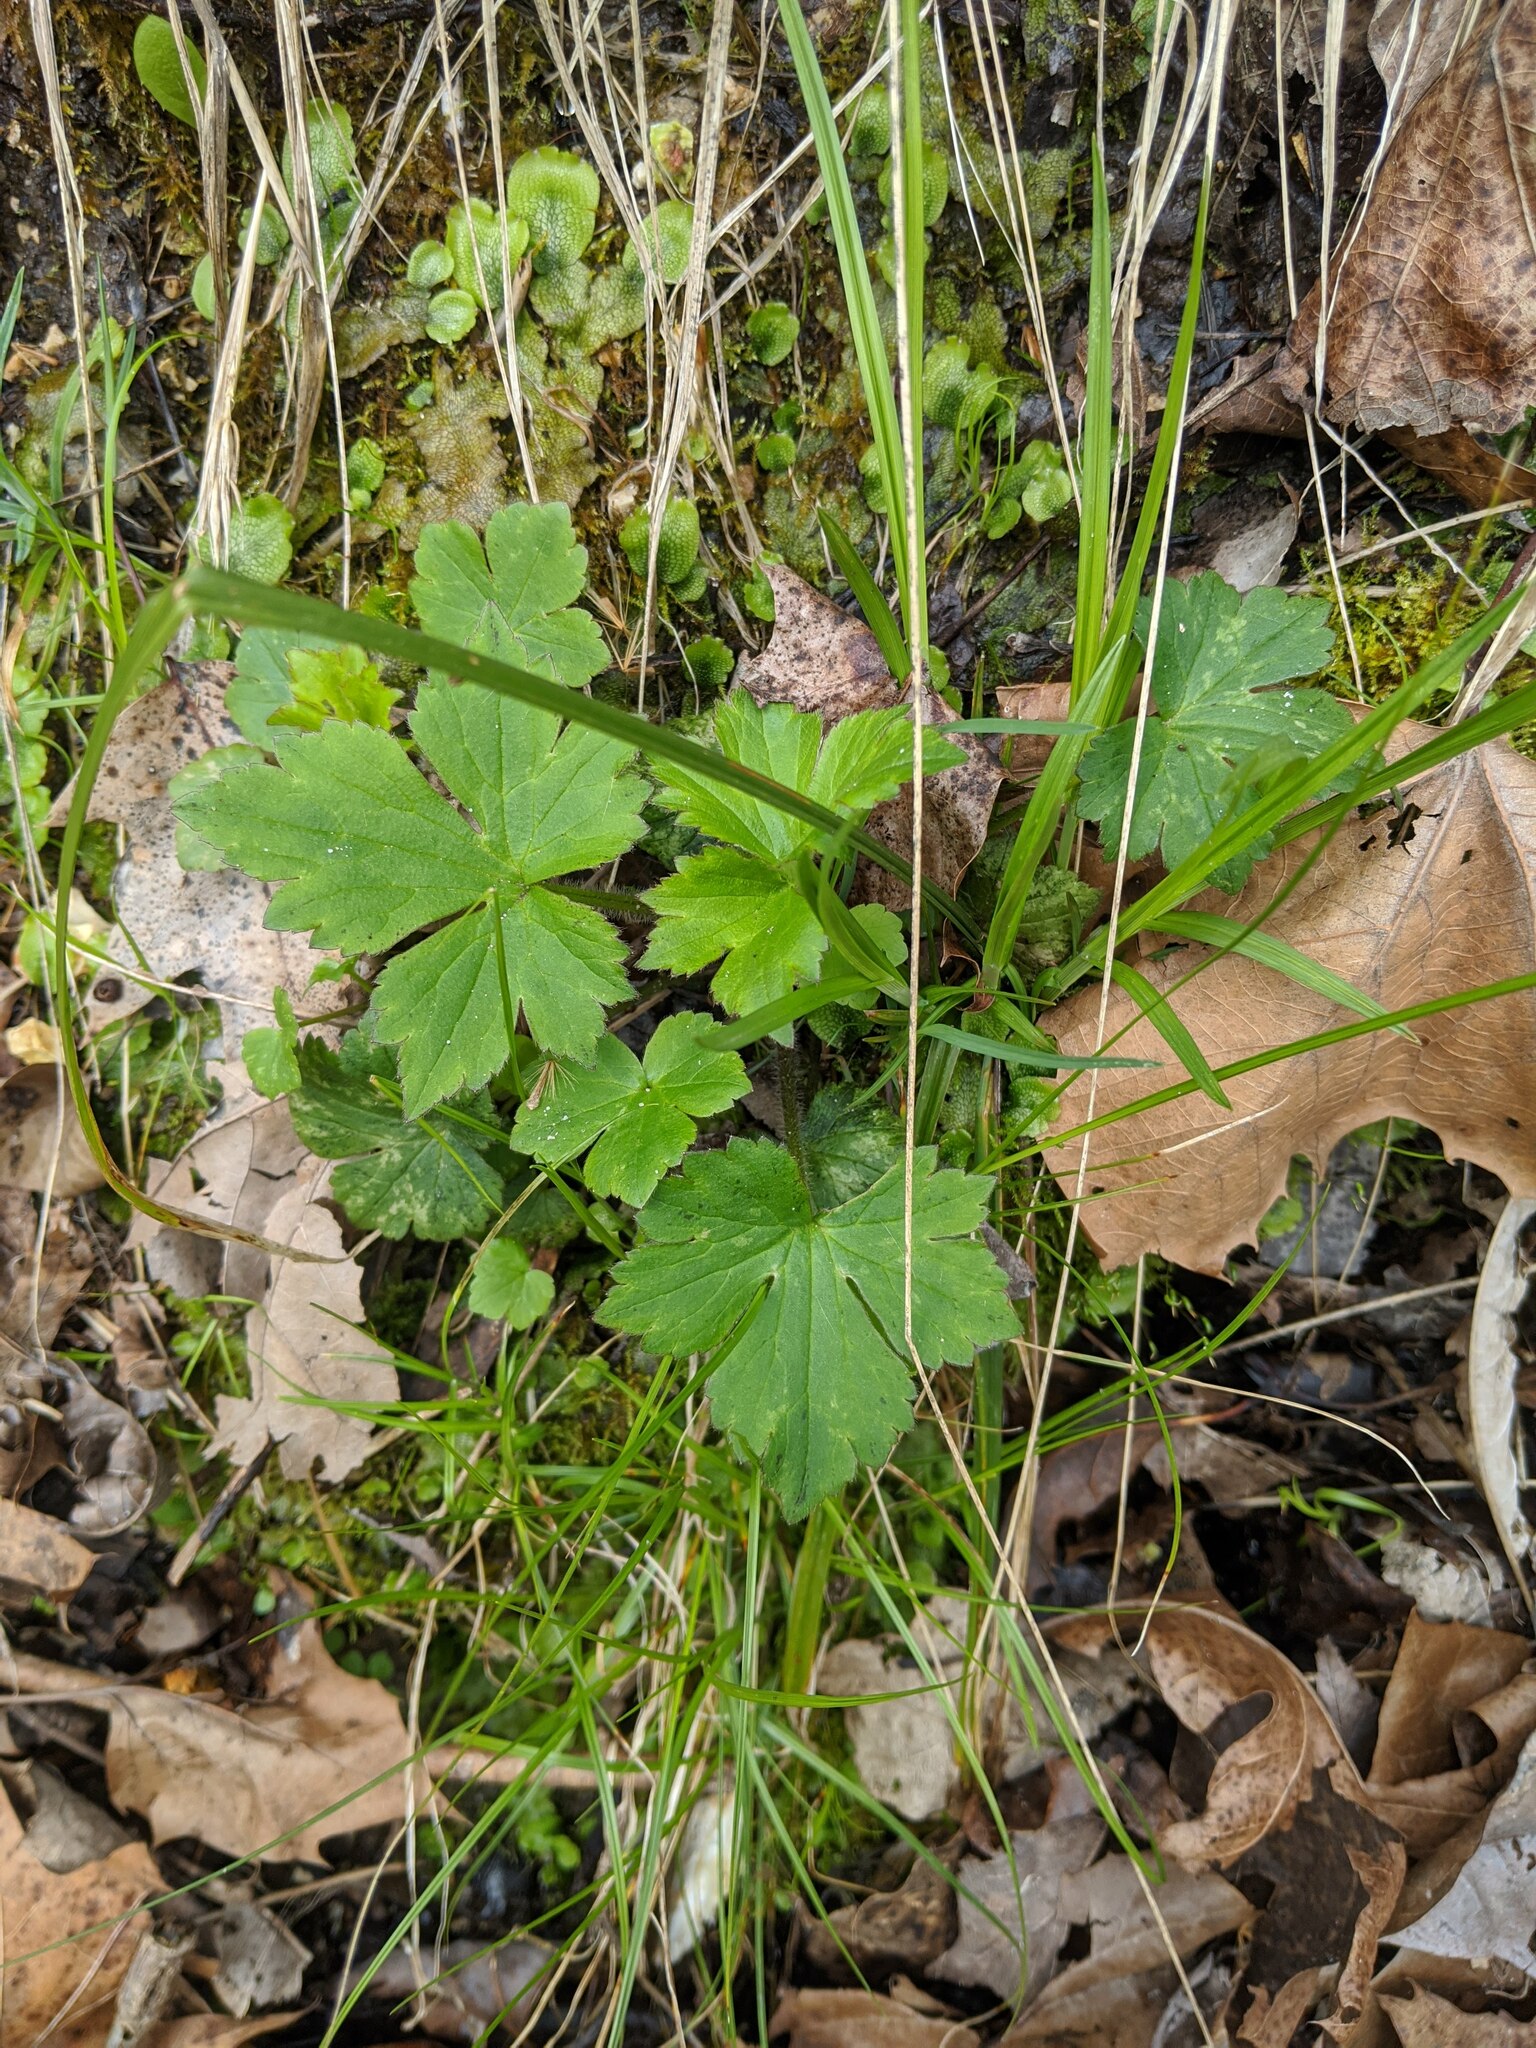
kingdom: Plantae
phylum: Tracheophyta
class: Magnoliopsida
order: Ranunculales
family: Ranunculaceae
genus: Ranunculus
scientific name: Ranunculus recurvatus
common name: Blisterwort
